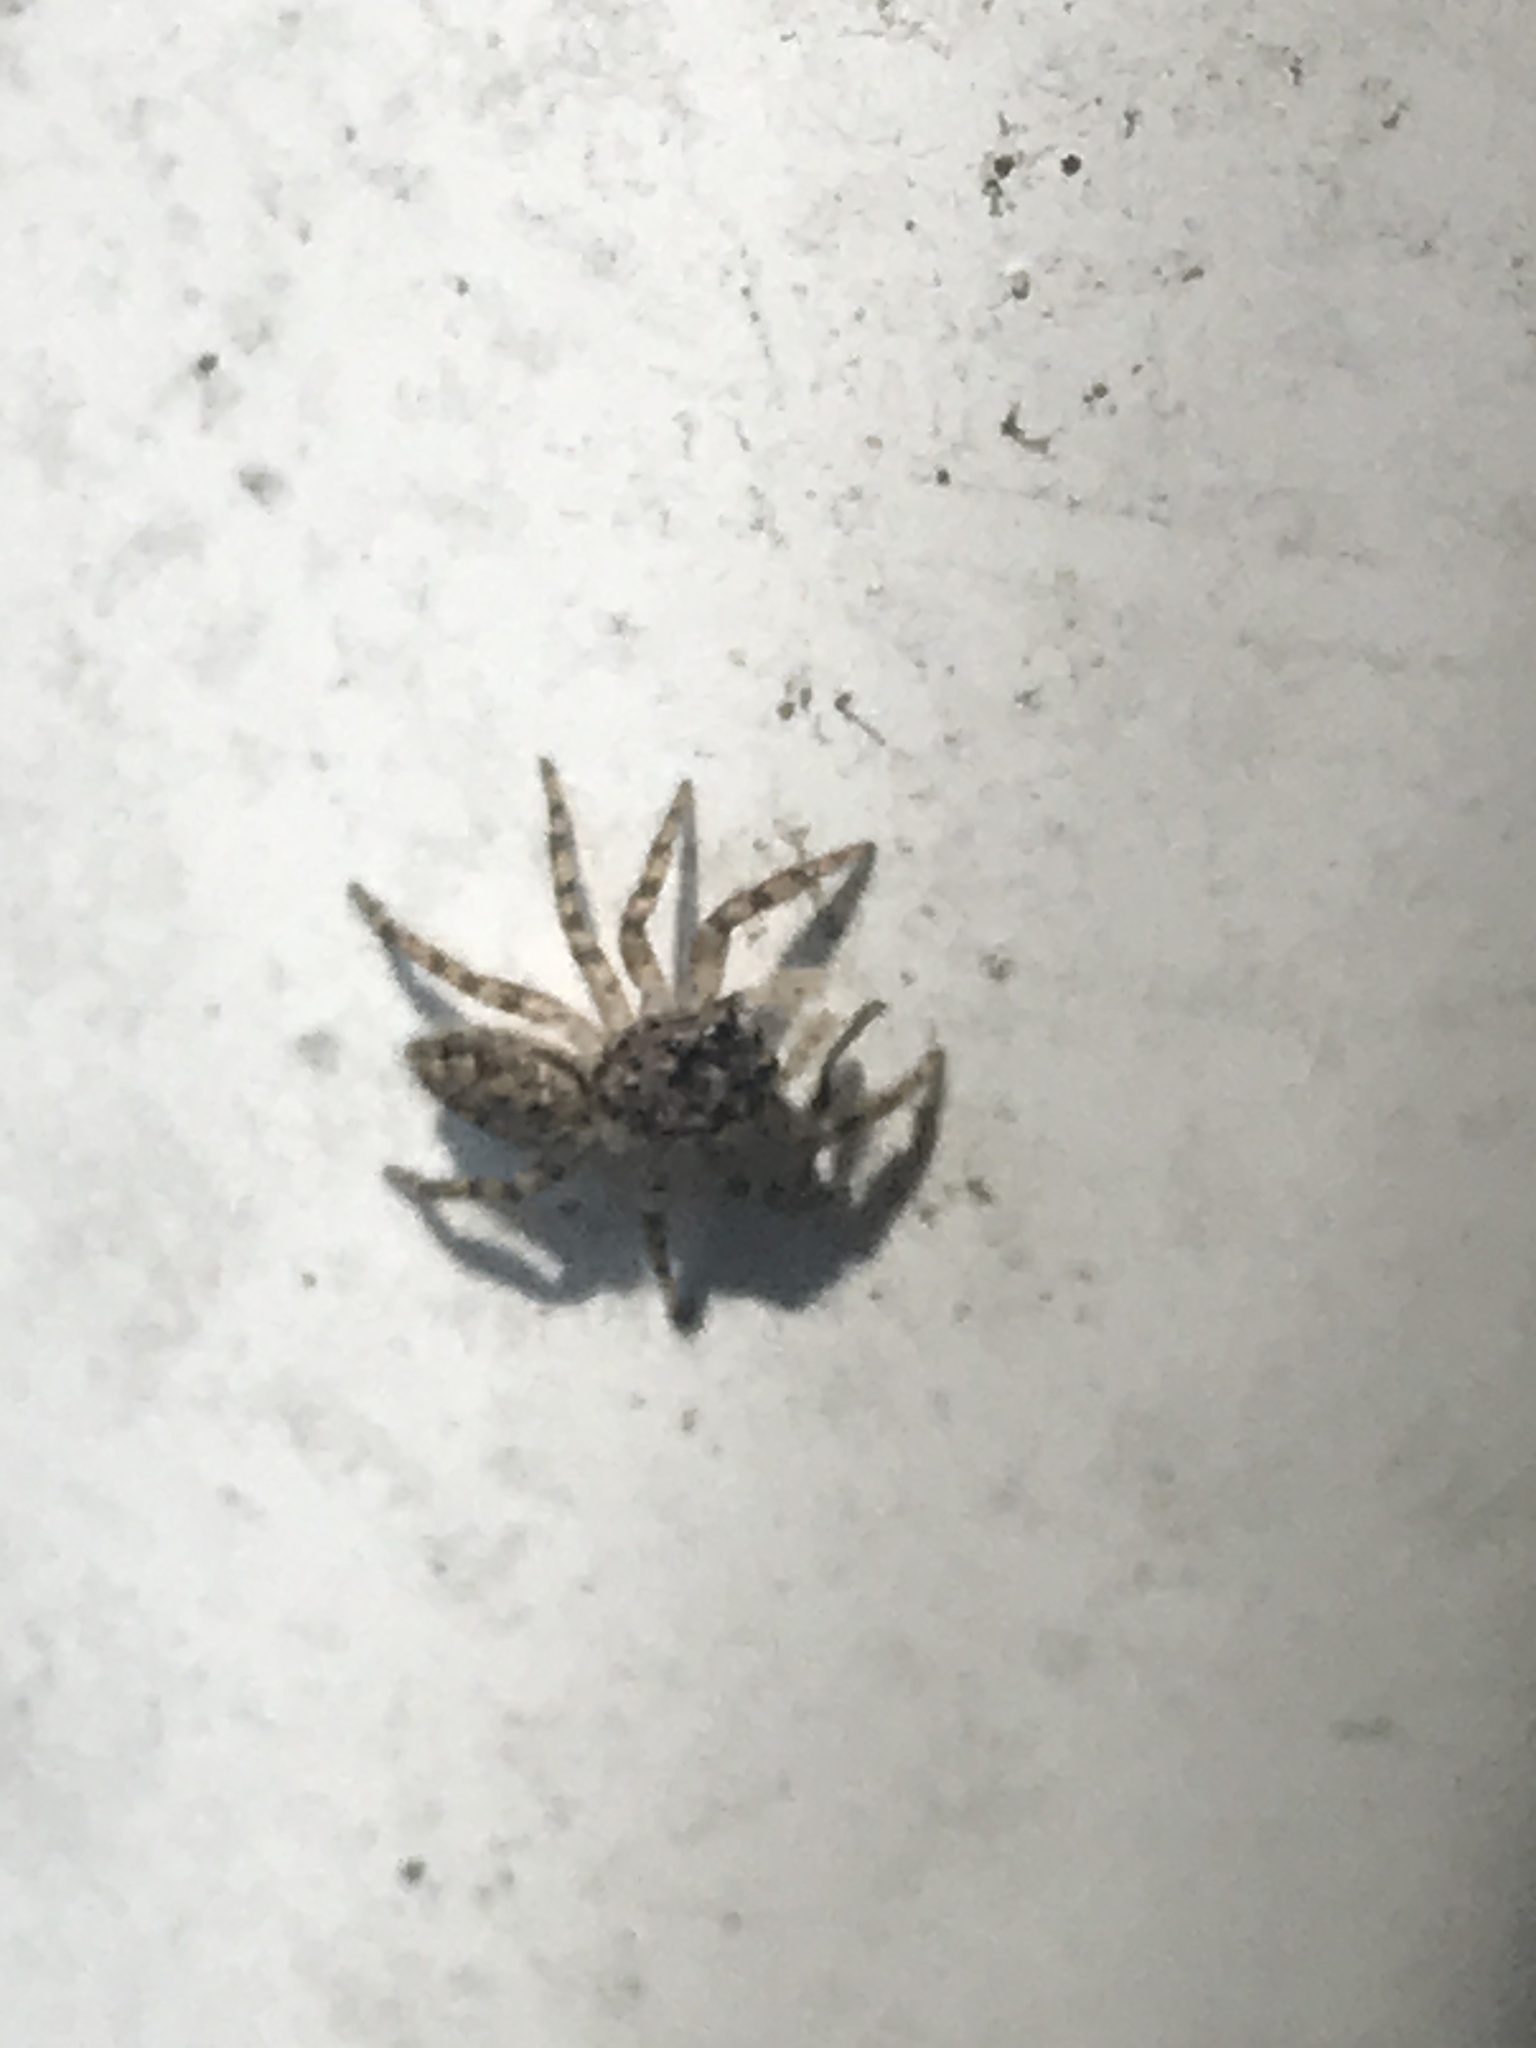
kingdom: Animalia
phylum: Arthropoda
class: Arachnida
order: Araneae
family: Salticidae
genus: Platycryptus
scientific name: Platycryptus undatus
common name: Tan jumping spider
